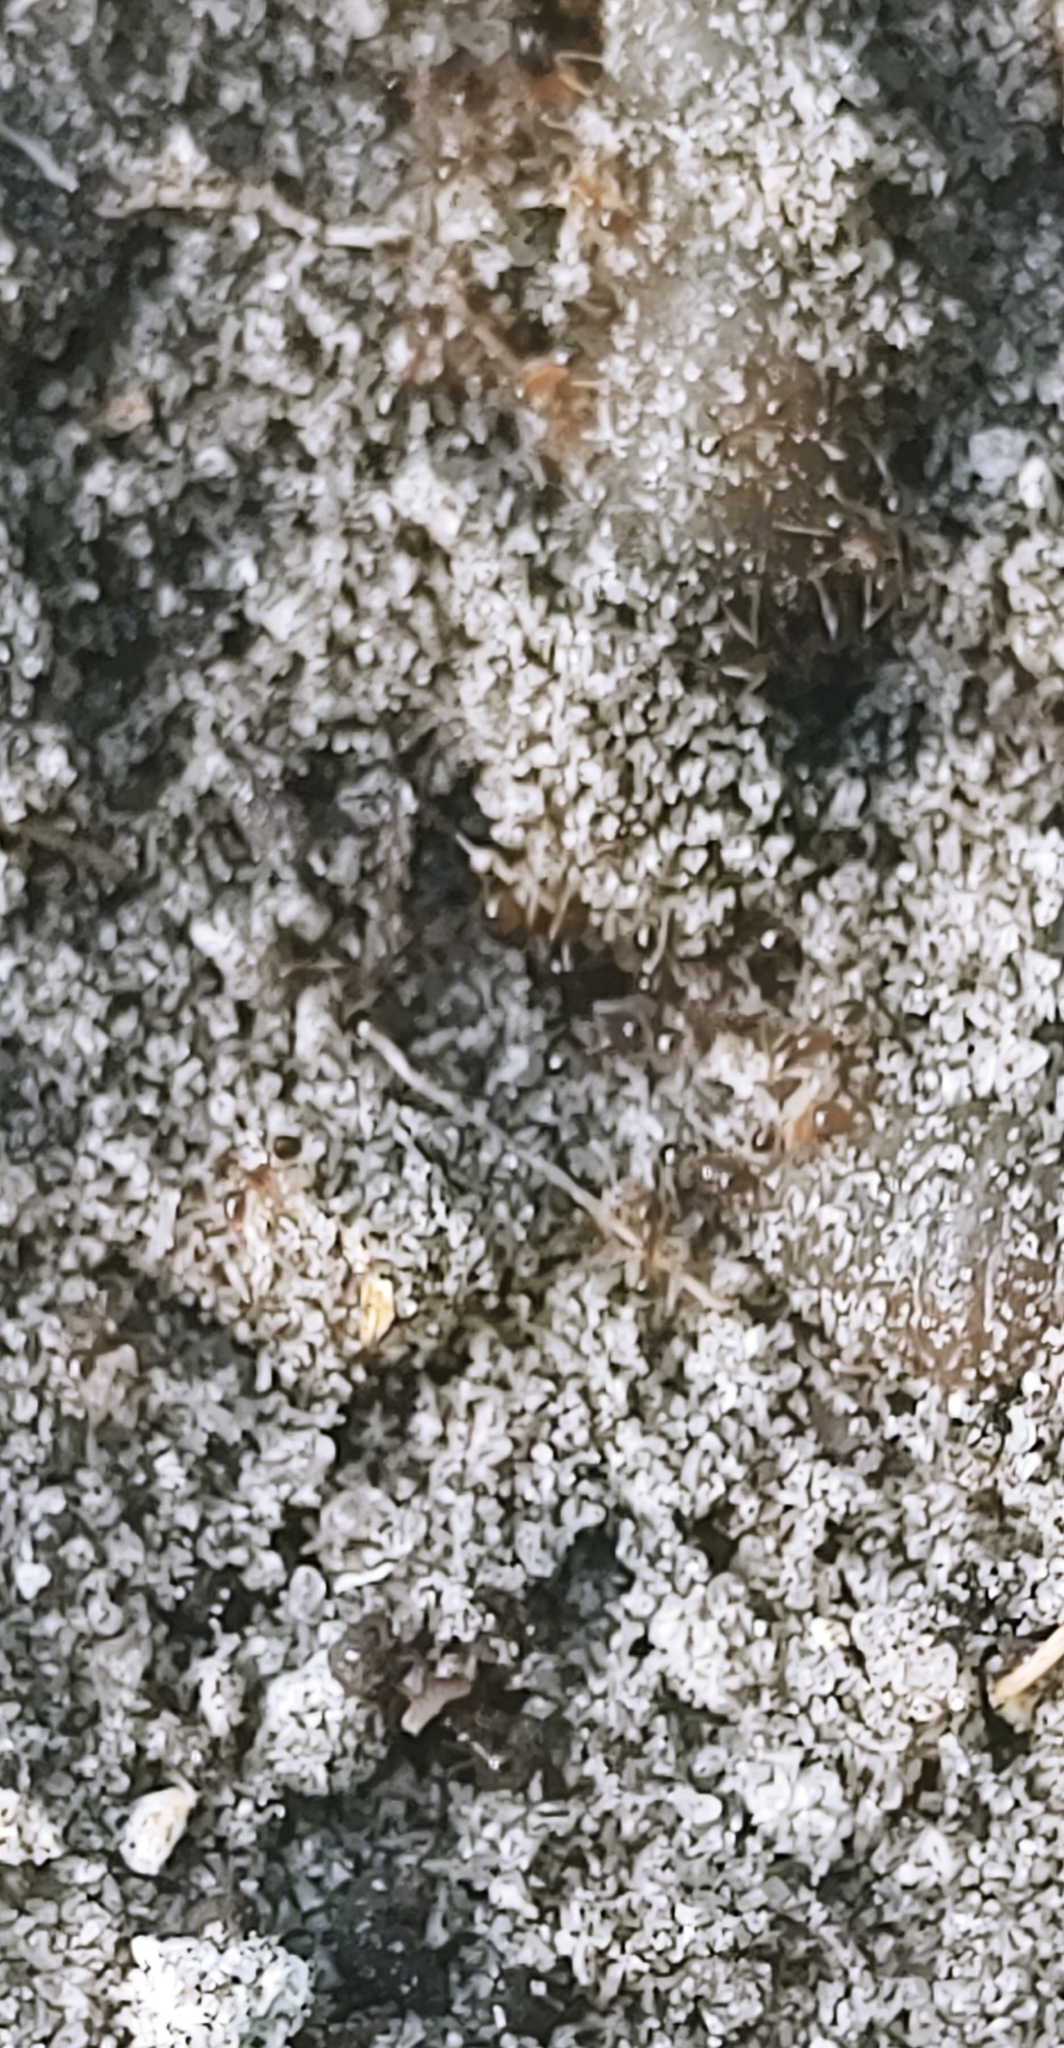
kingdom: Animalia
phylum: Arthropoda
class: Insecta
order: Hymenoptera
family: Formicidae
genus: Pheidole
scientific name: Pheidole megacephala
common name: Bigheaded ant
